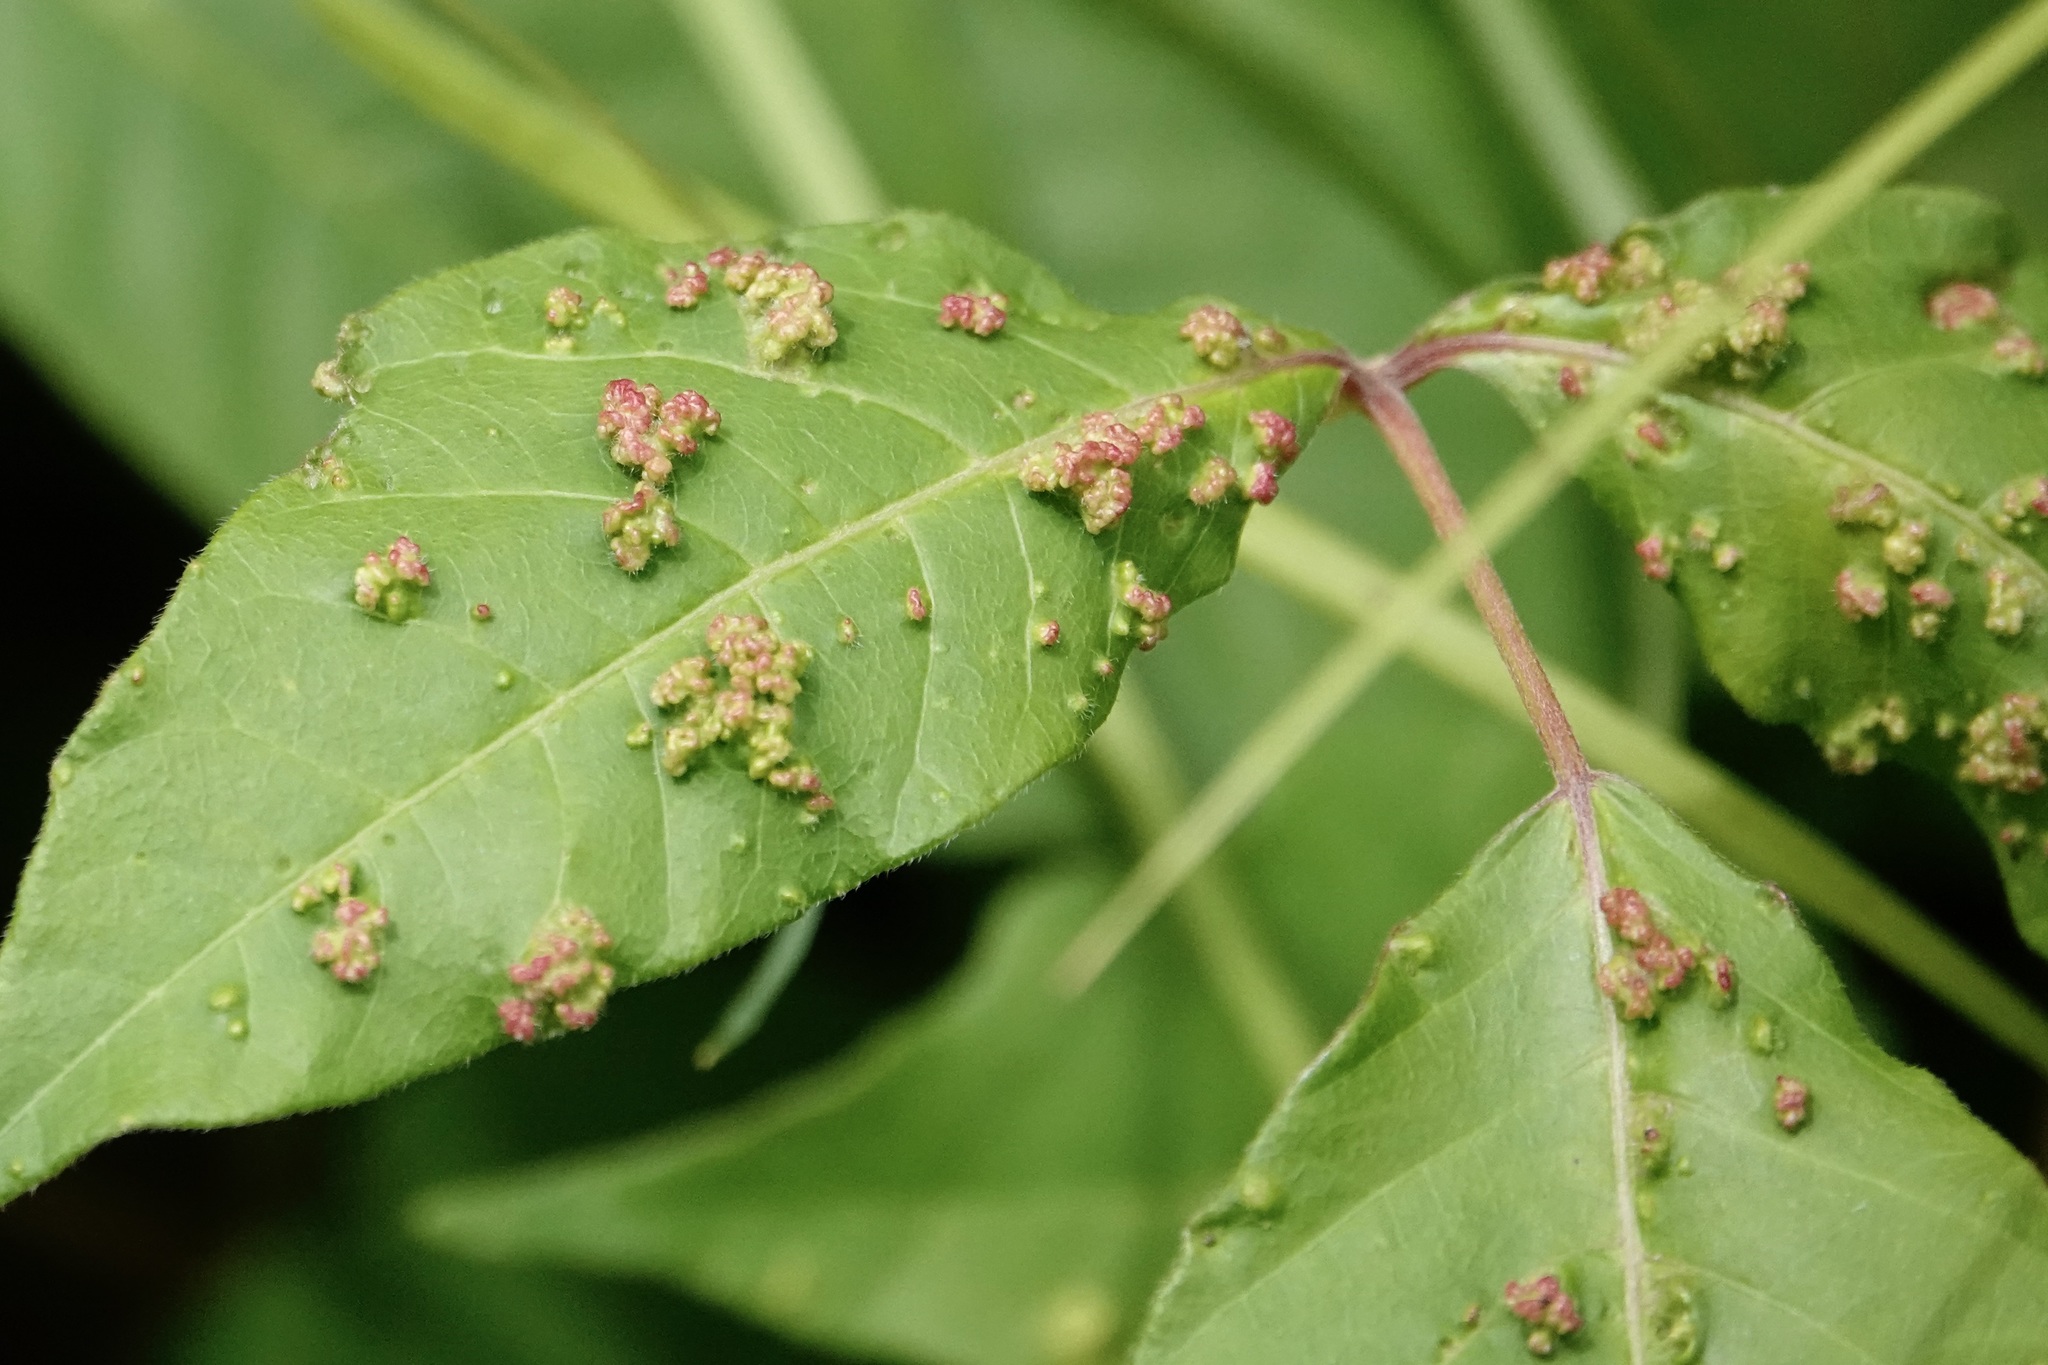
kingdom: Animalia
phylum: Arthropoda
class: Arachnida
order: Trombidiformes
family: Eriophyidae
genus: Aculops
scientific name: Aculops
